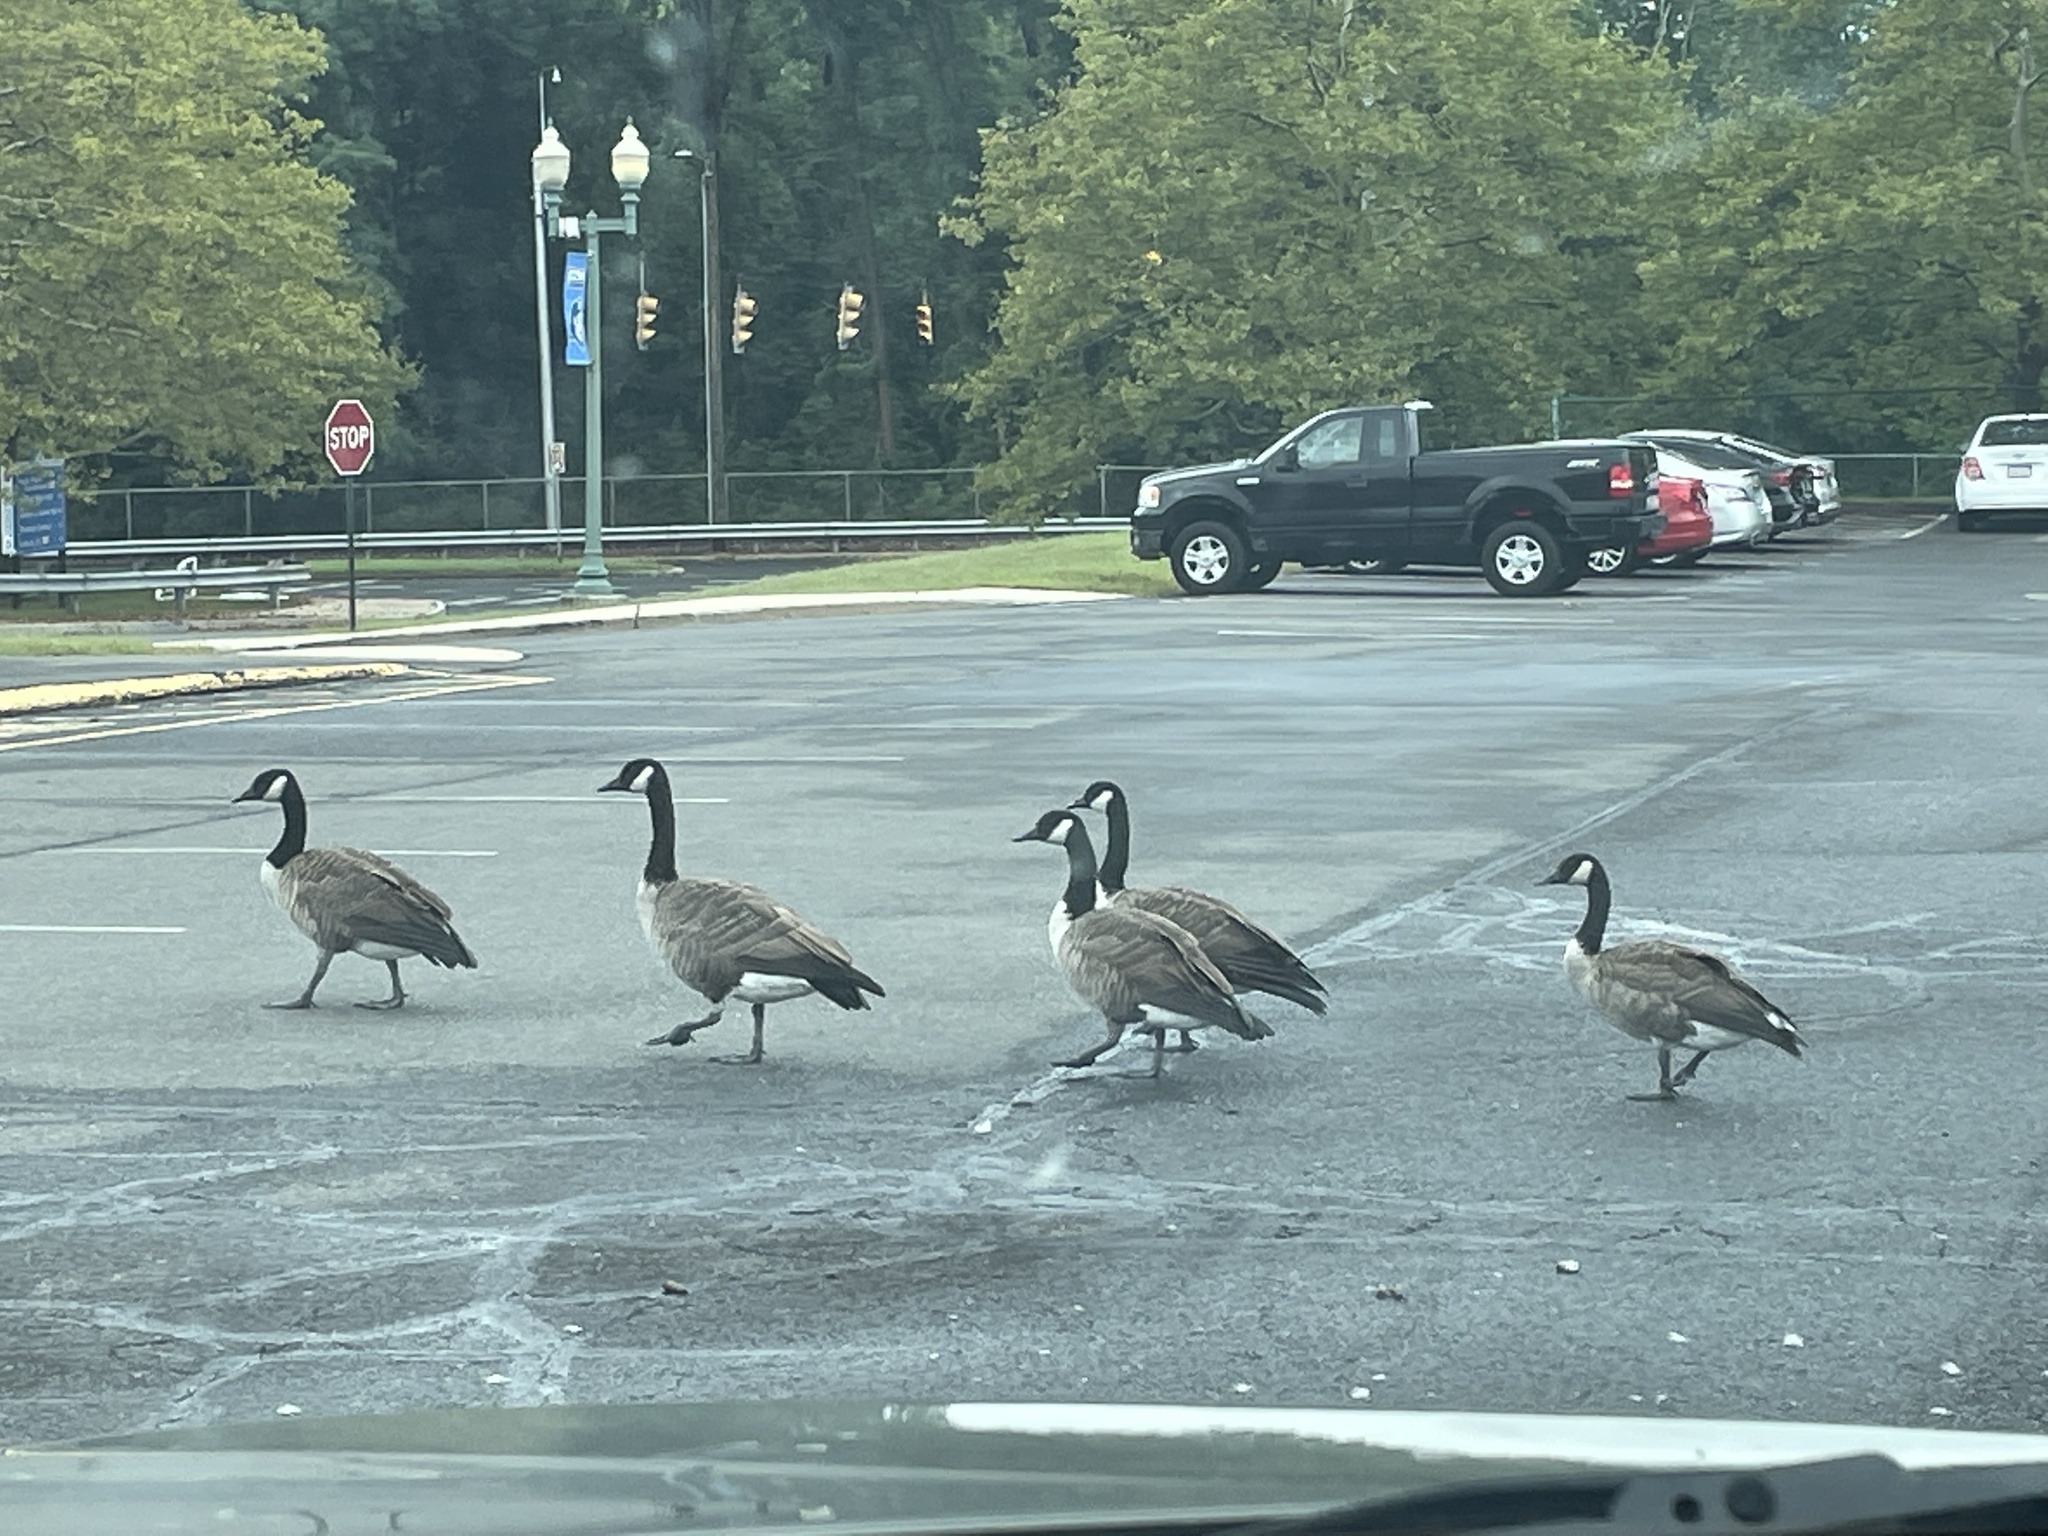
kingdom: Animalia
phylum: Chordata
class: Aves
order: Anseriformes
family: Anatidae
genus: Branta
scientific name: Branta canadensis
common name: Canada goose
